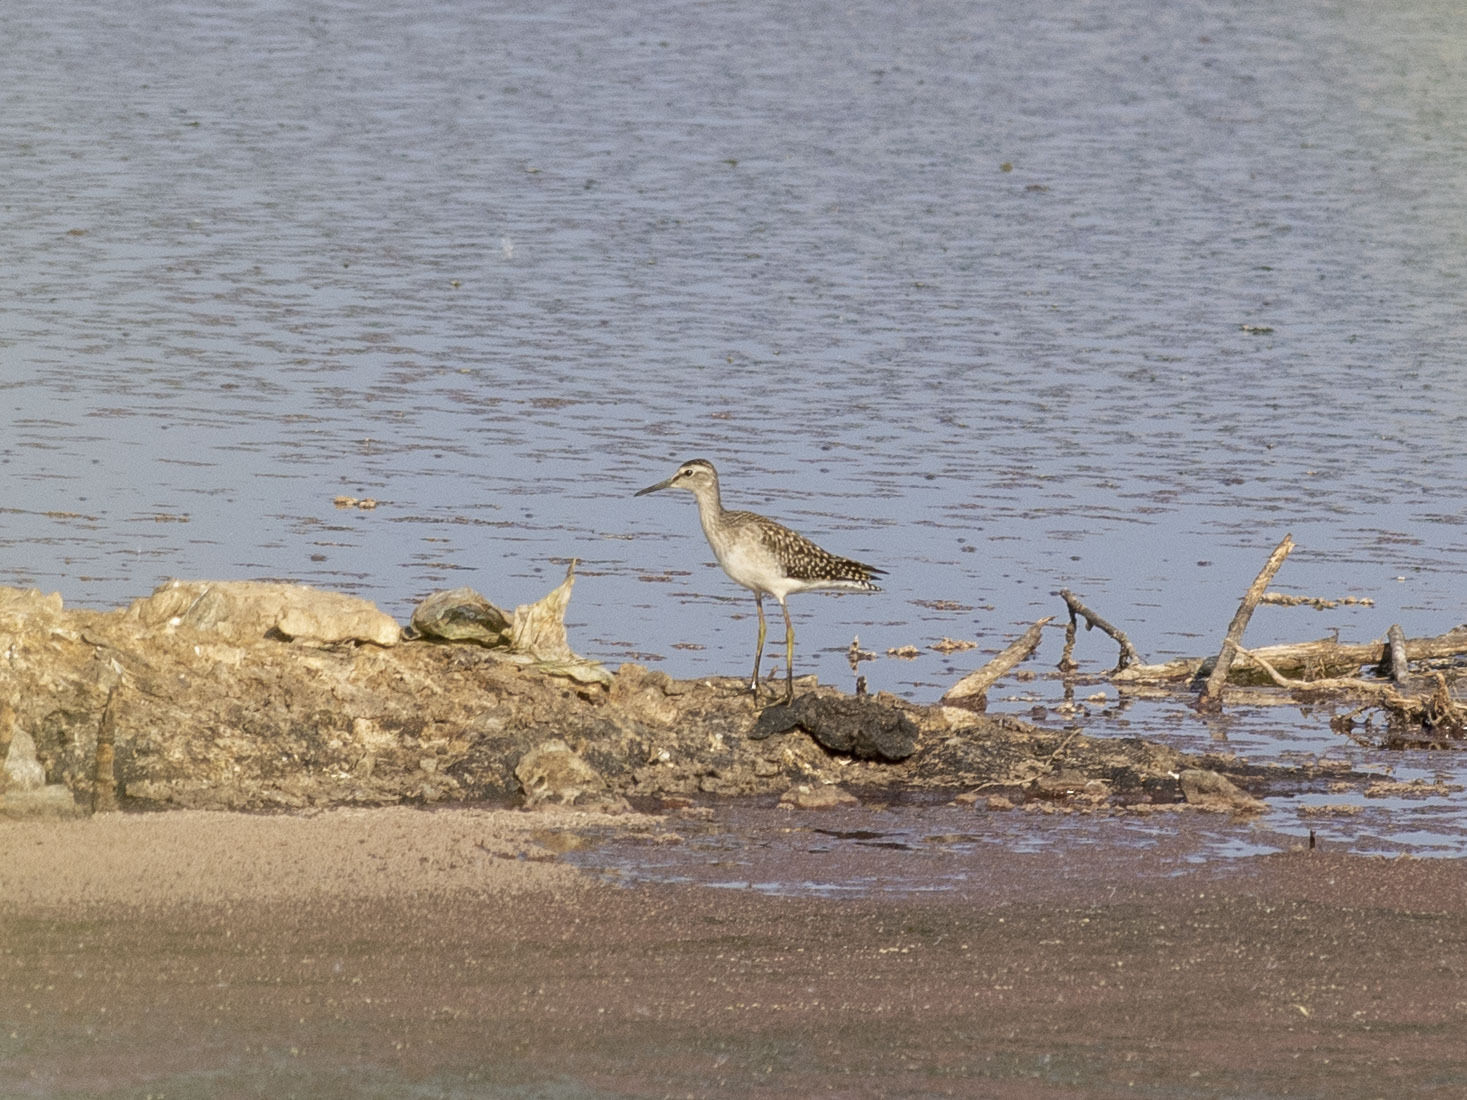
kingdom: Animalia
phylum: Chordata
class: Aves
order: Charadriiformes
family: Scolopacidae
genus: Tringa
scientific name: Tringa glareola
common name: Wood sandpiper
